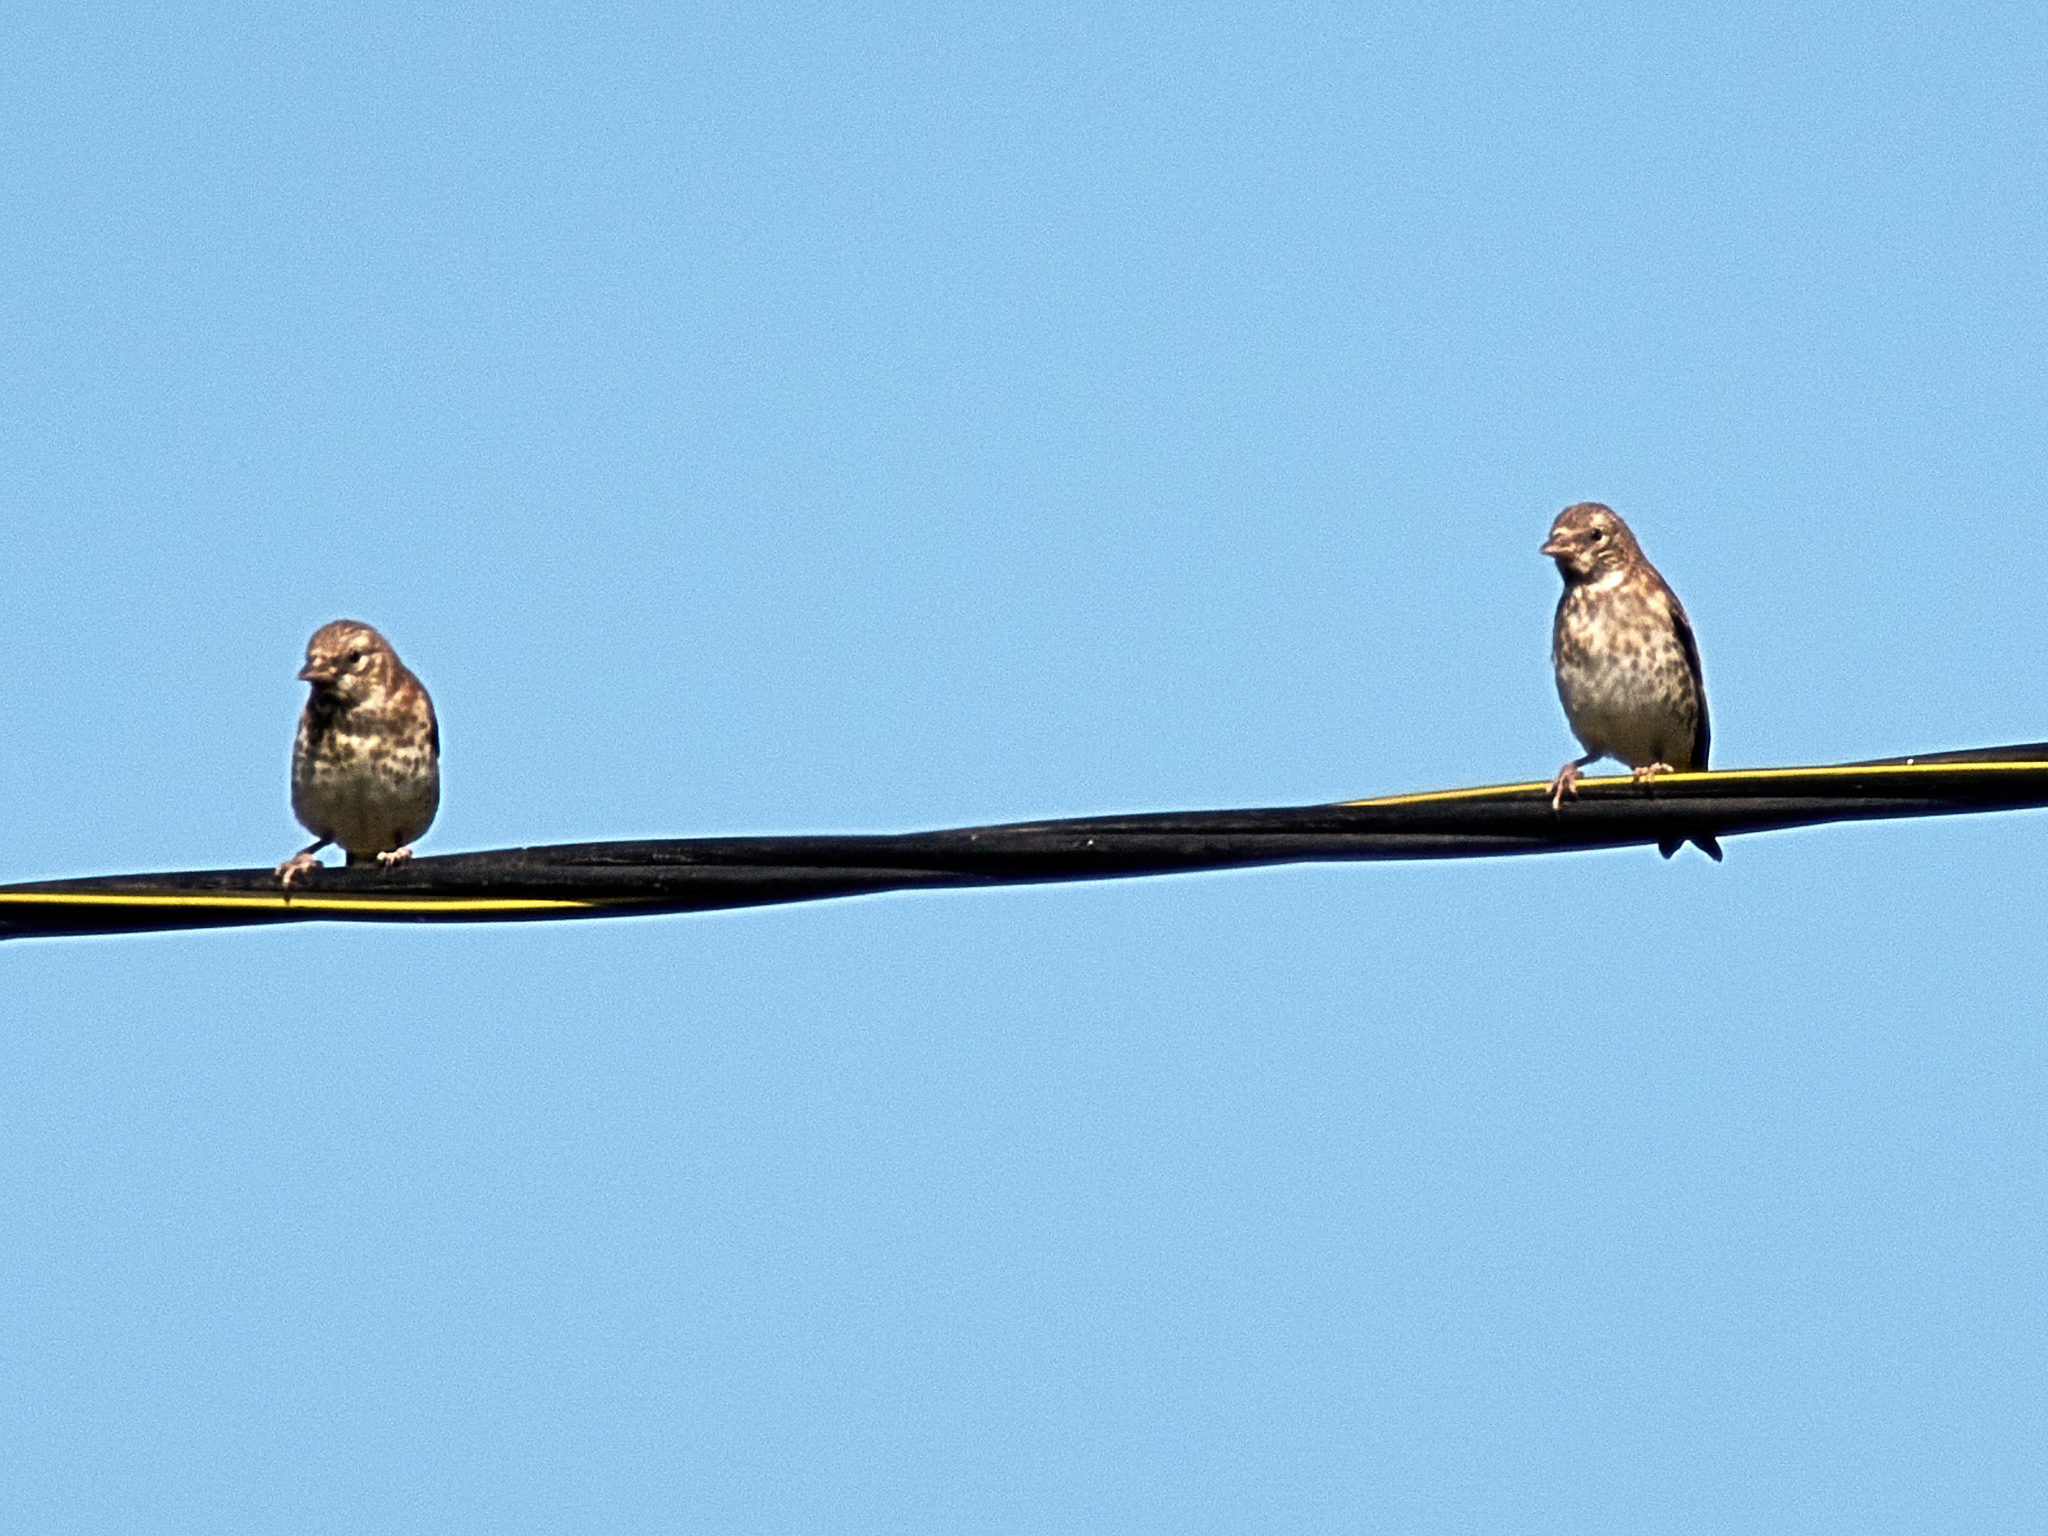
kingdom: Animalia
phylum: Chordata
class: Aves
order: Passeriformes
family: Fringillidae
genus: Linaria
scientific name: Linaria cannabina
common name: Common linnet
